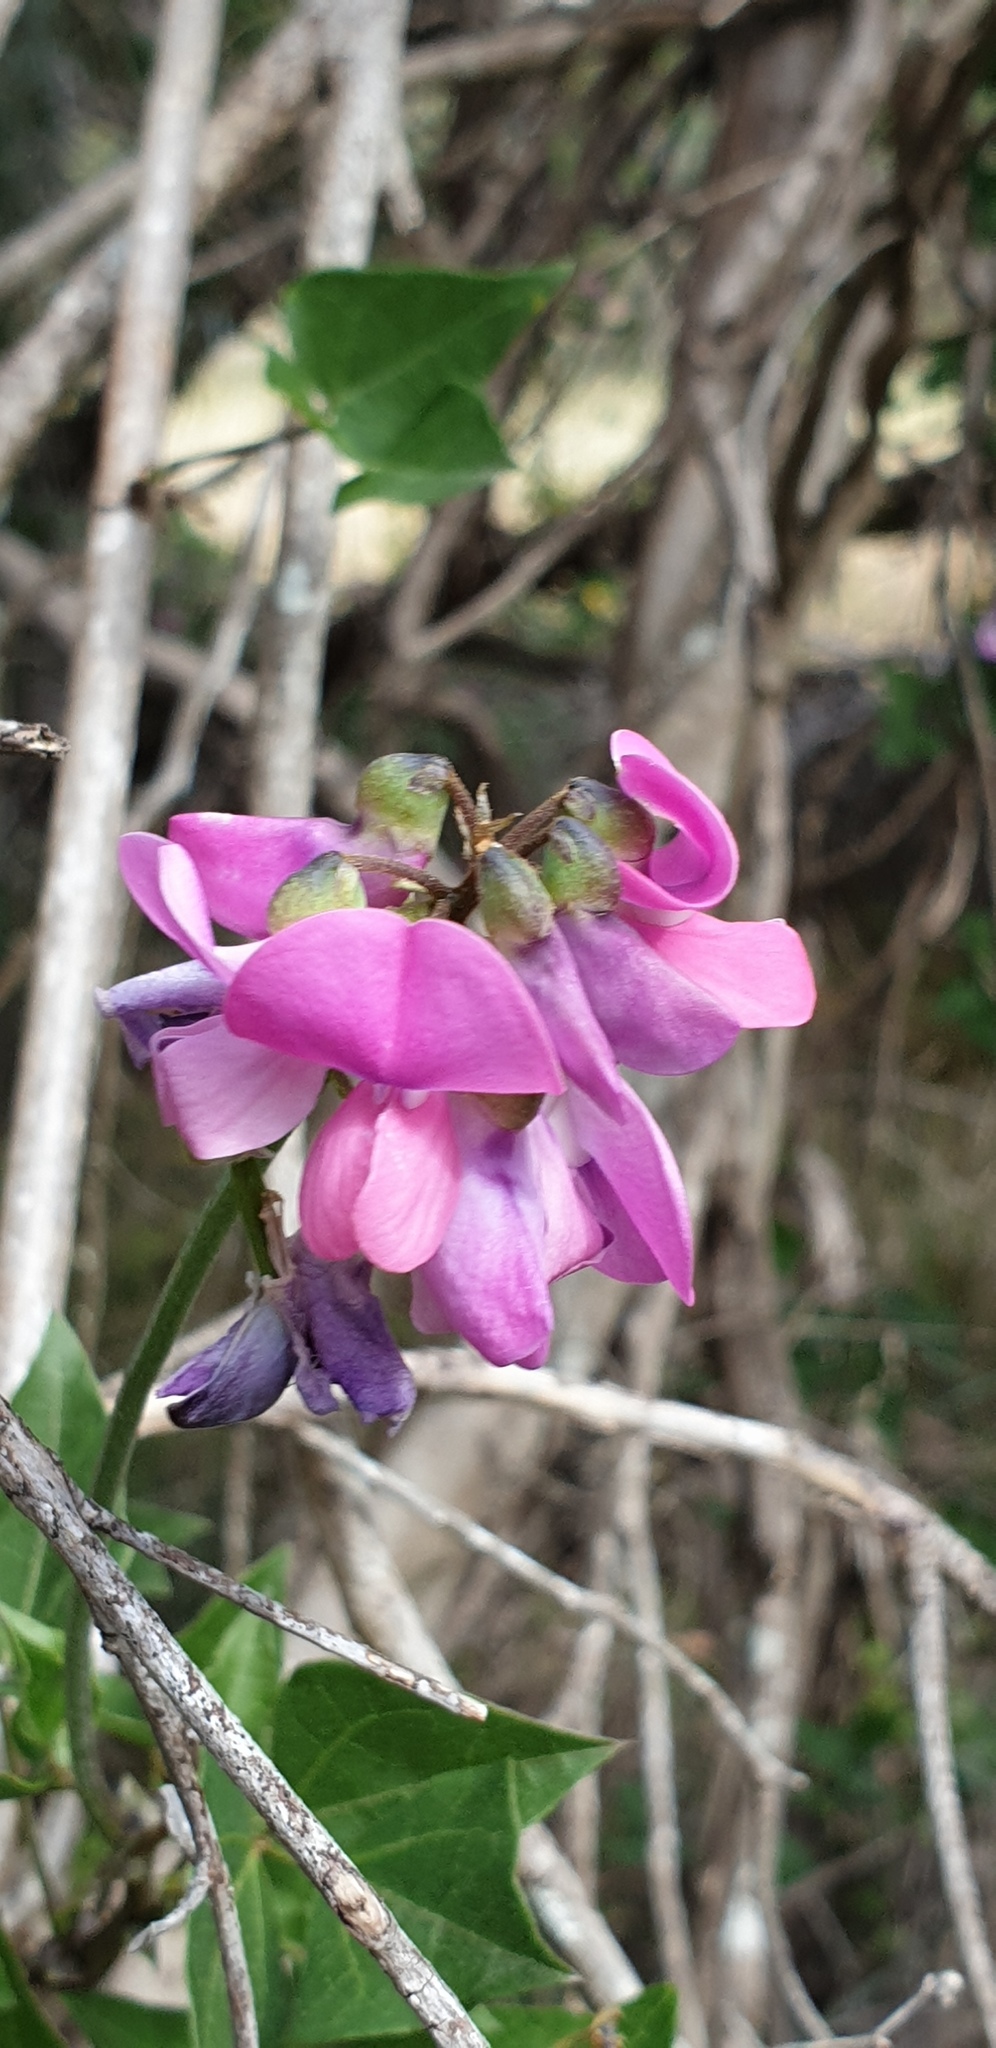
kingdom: Plantae
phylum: Tracheophyta
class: Magnoliopsida
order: Fabales
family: Fabaceae
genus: Dipogon
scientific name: Dipogon lignosus
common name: Okie bean
